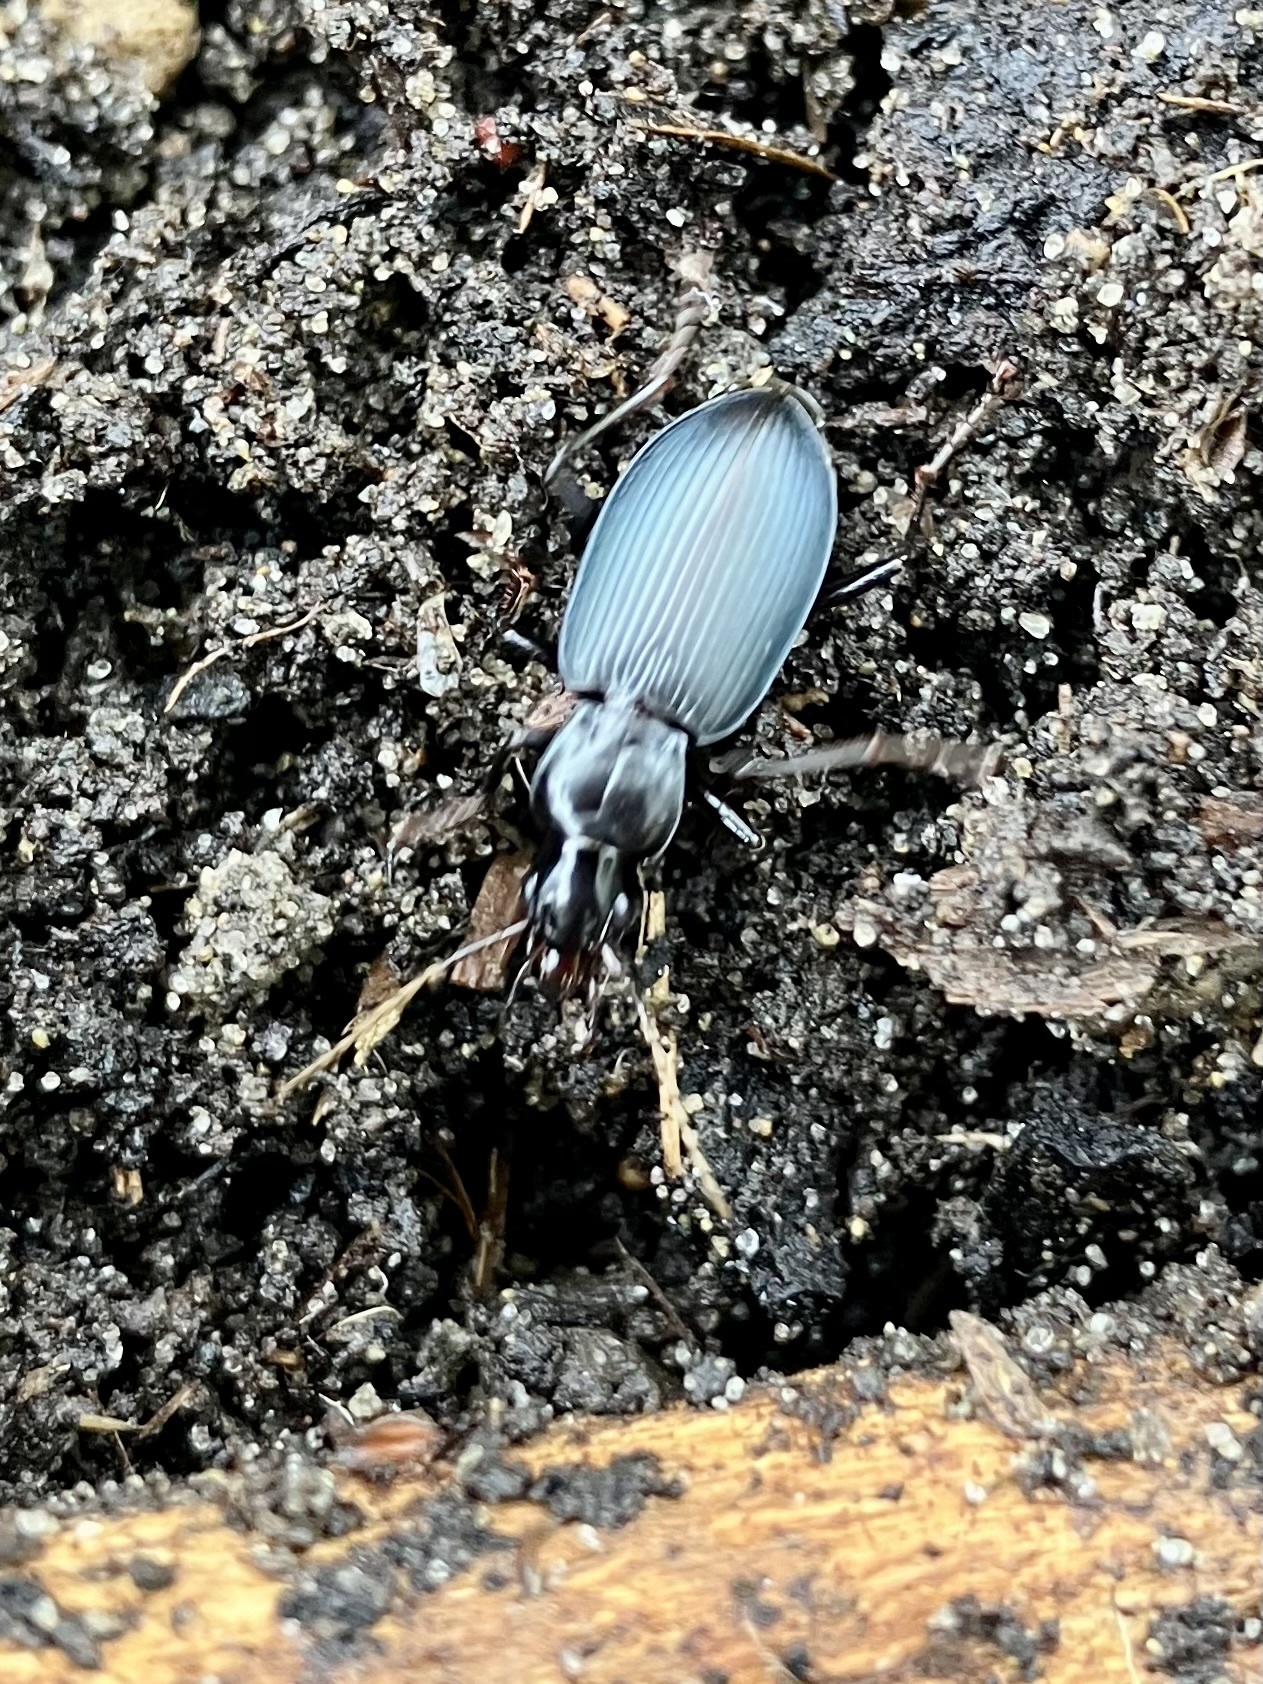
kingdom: Animalia
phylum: Arthropoda
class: Insecta
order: Coleoptera
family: Carabidae
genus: Laemostenus
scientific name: Laemostenus complanatus
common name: Cosmopolitan ground beetle
